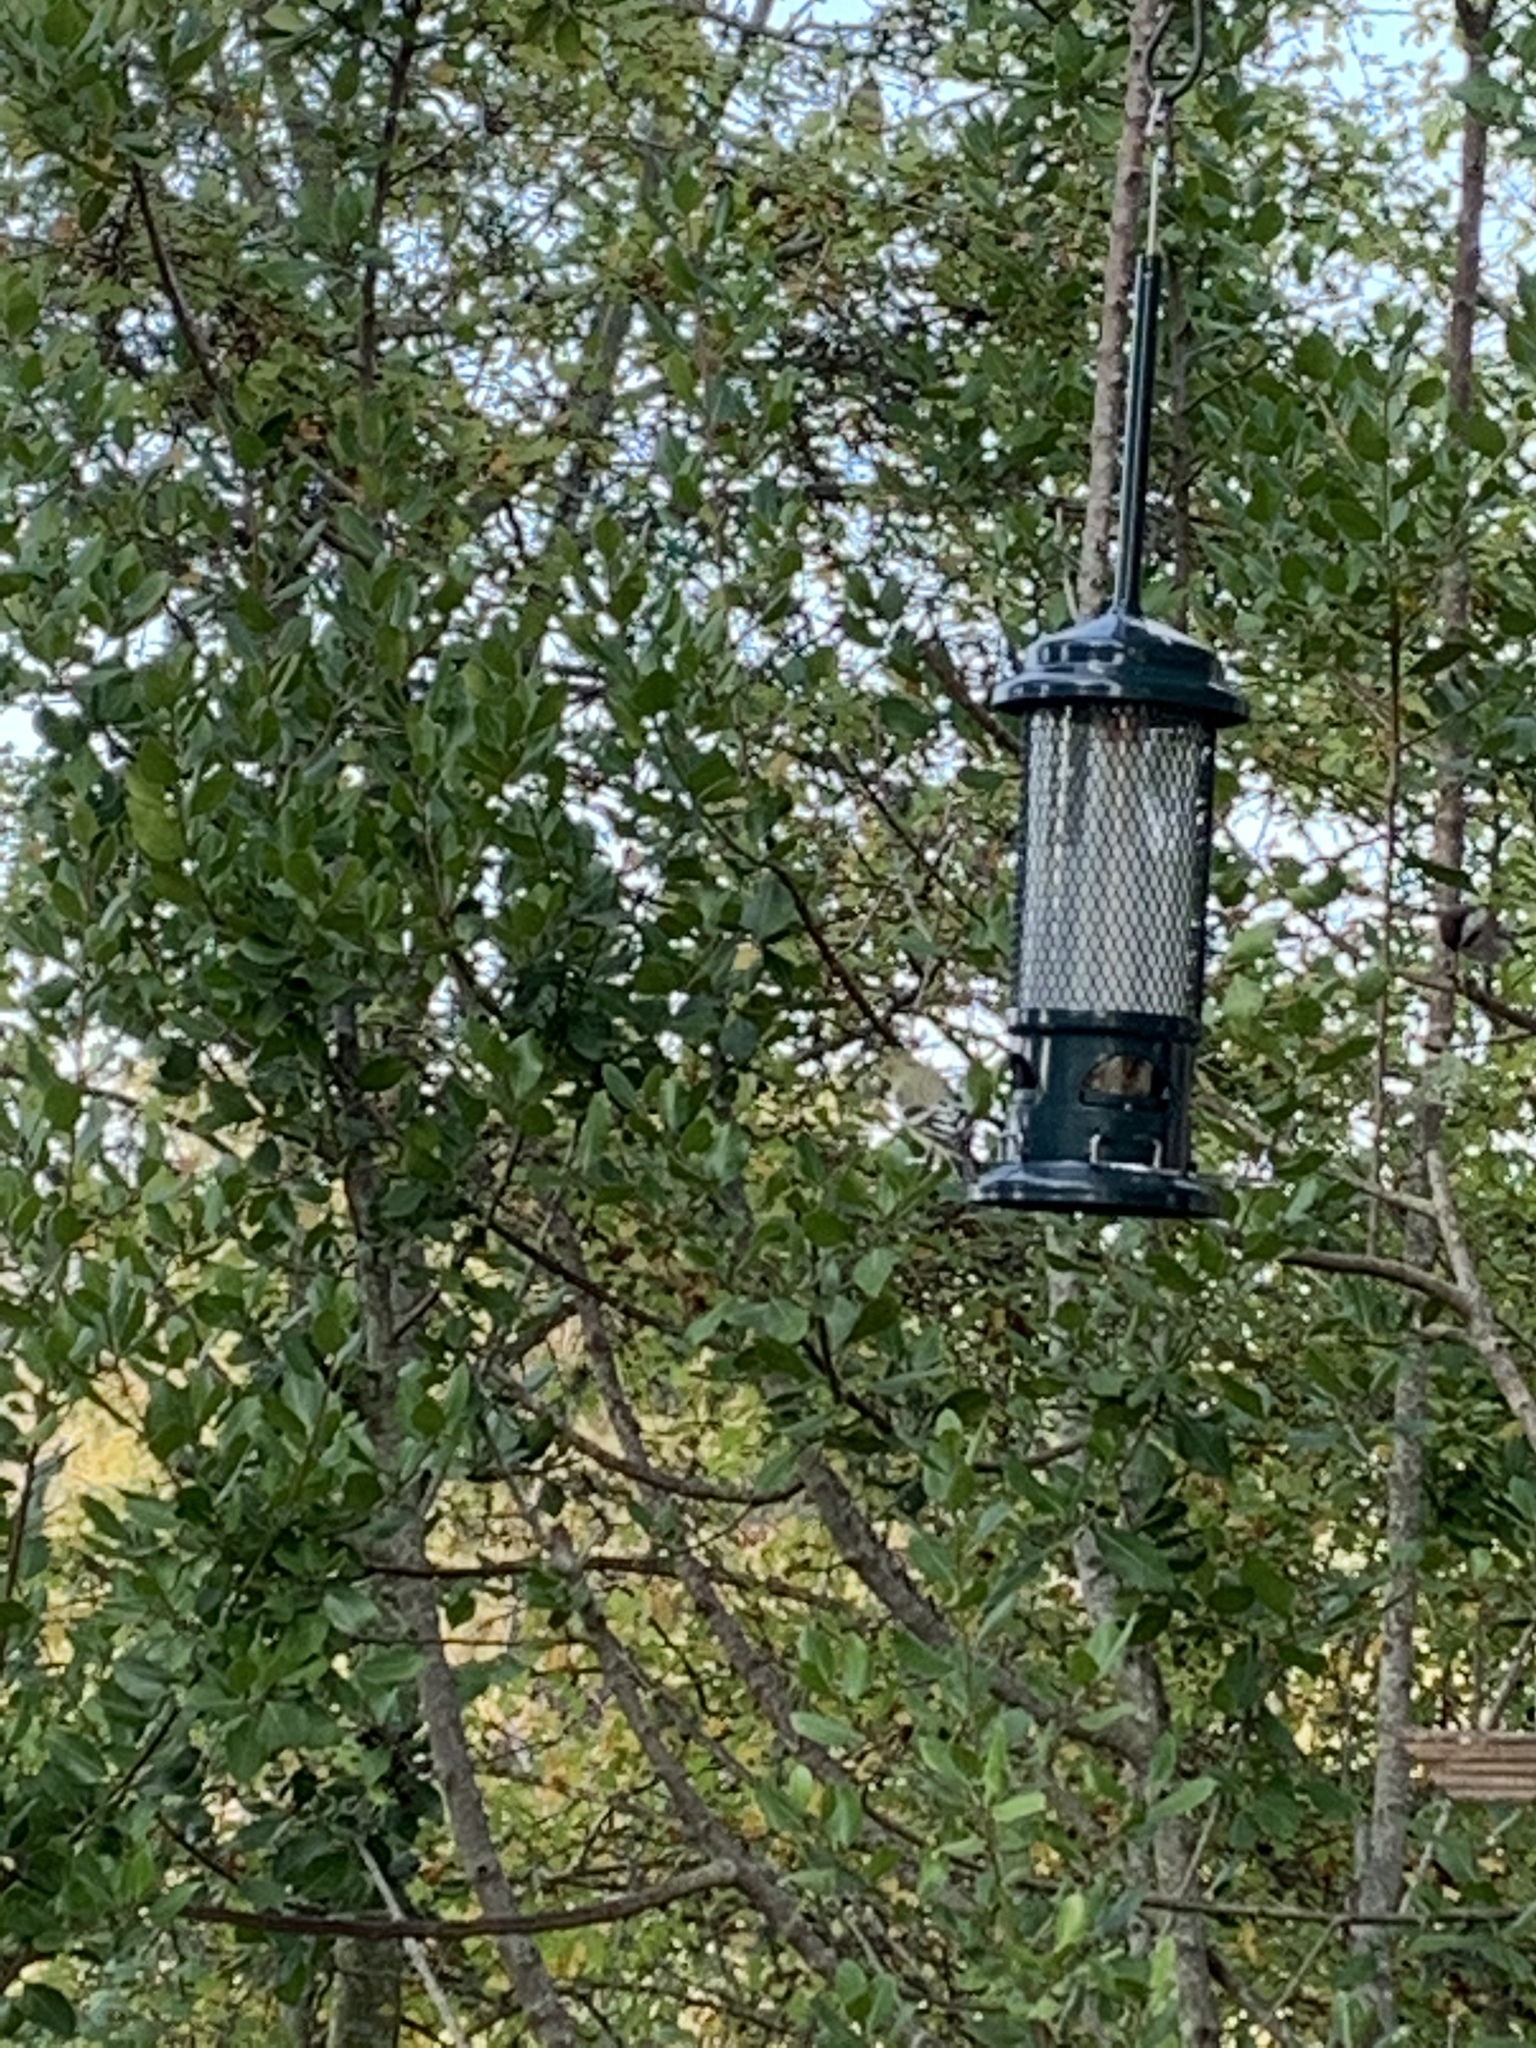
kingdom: Animalia
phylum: Chordata
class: Aves
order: Passeriformes
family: Fringillidae
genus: Spinus
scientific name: Spinus psaltria
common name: Lesser goldfinch
